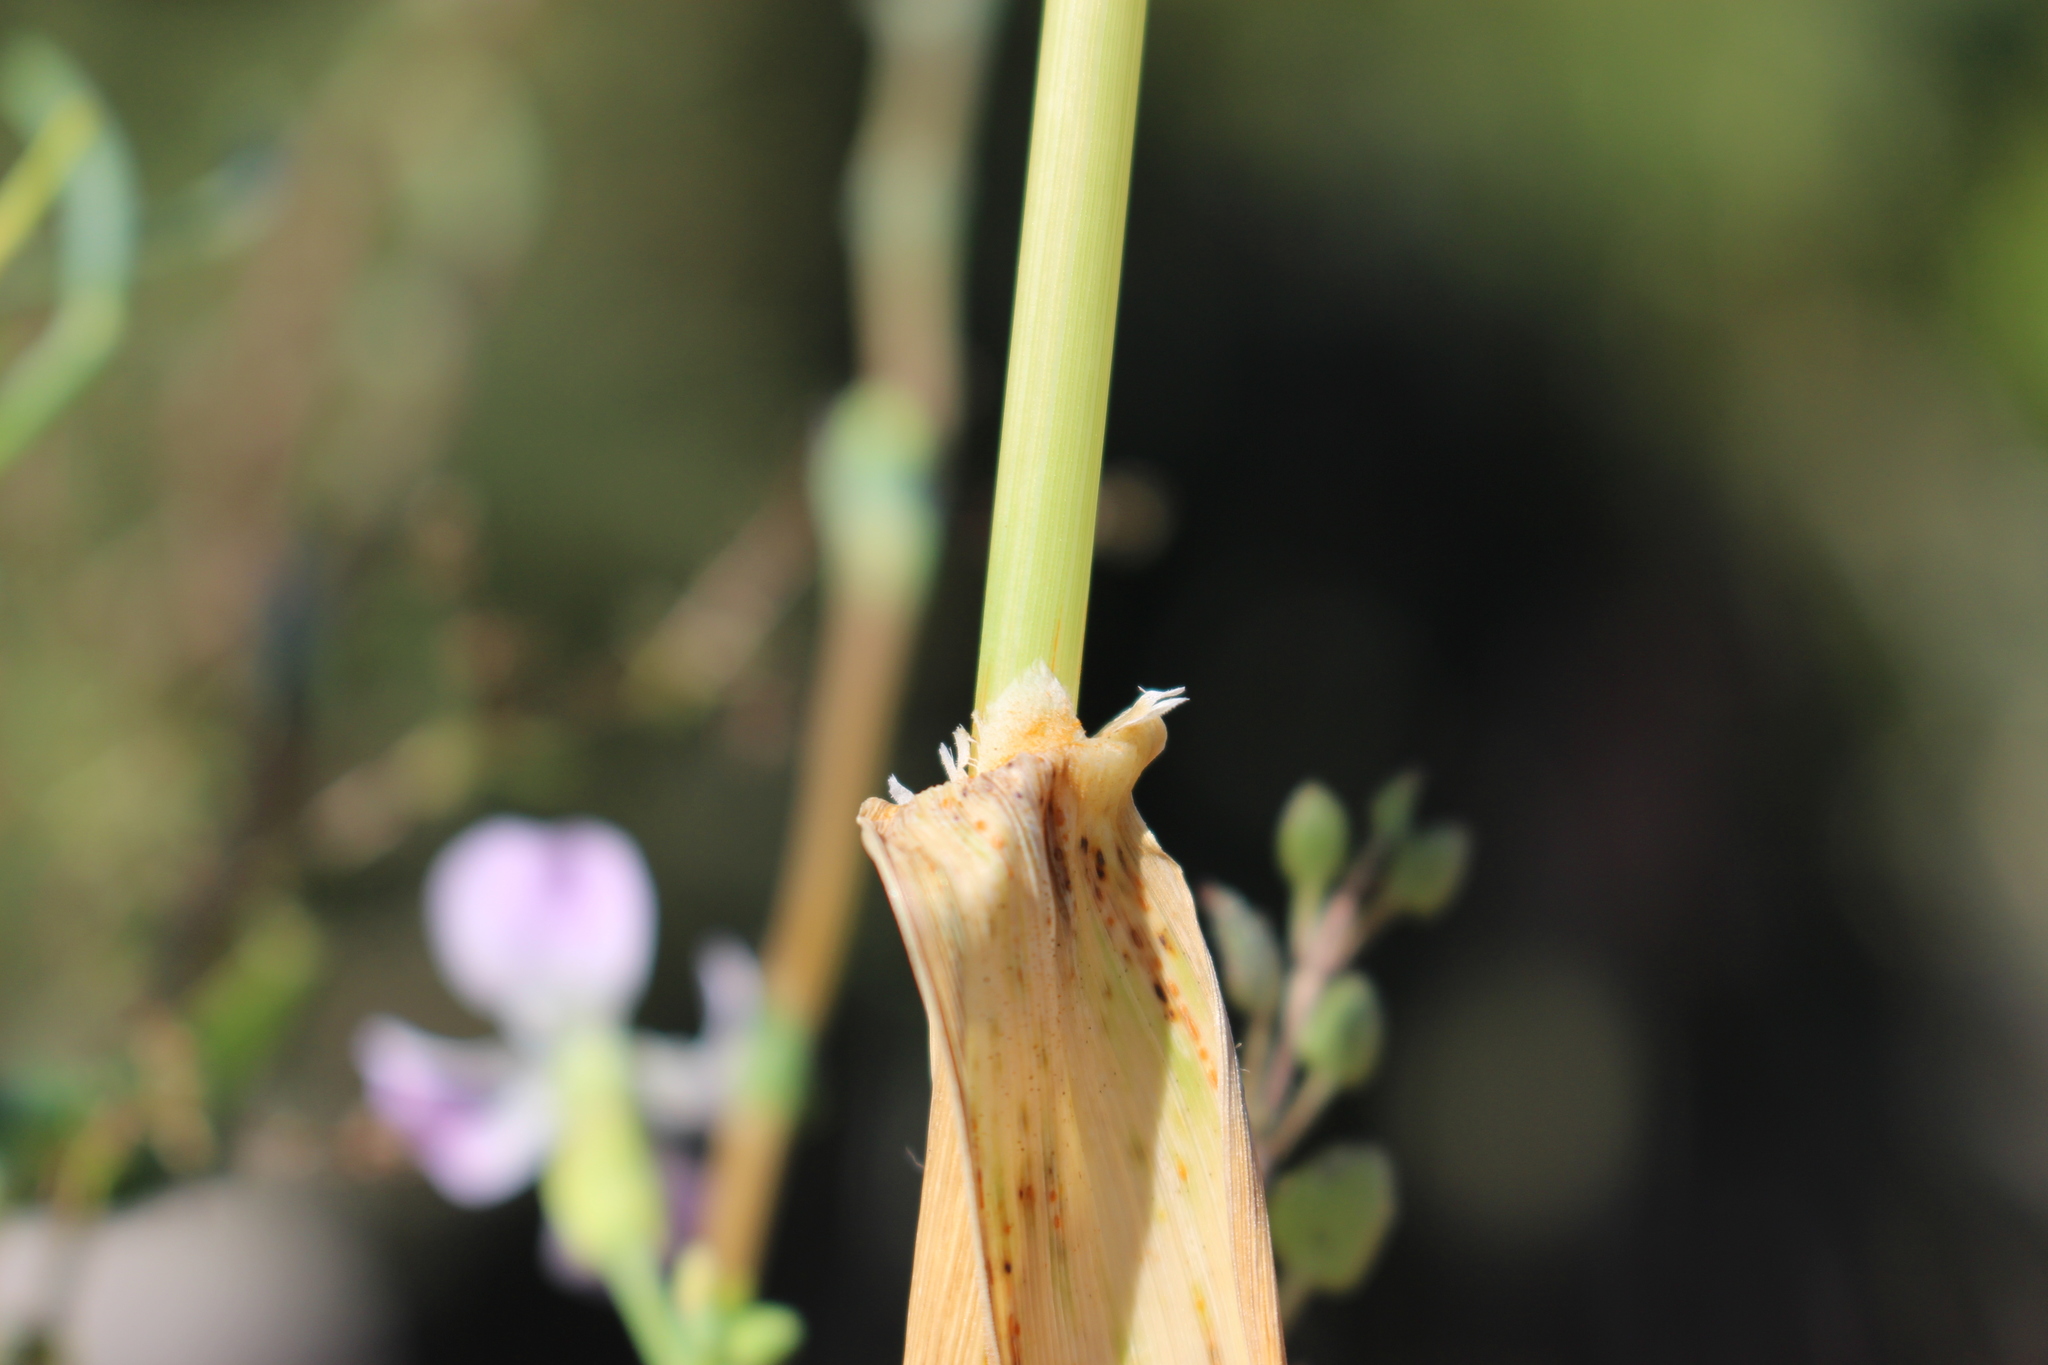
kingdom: Plantae
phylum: Tracheophyta
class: Liliopsida
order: Poales
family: Poaceae
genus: Avena
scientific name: Avena fatua
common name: Wild oat
